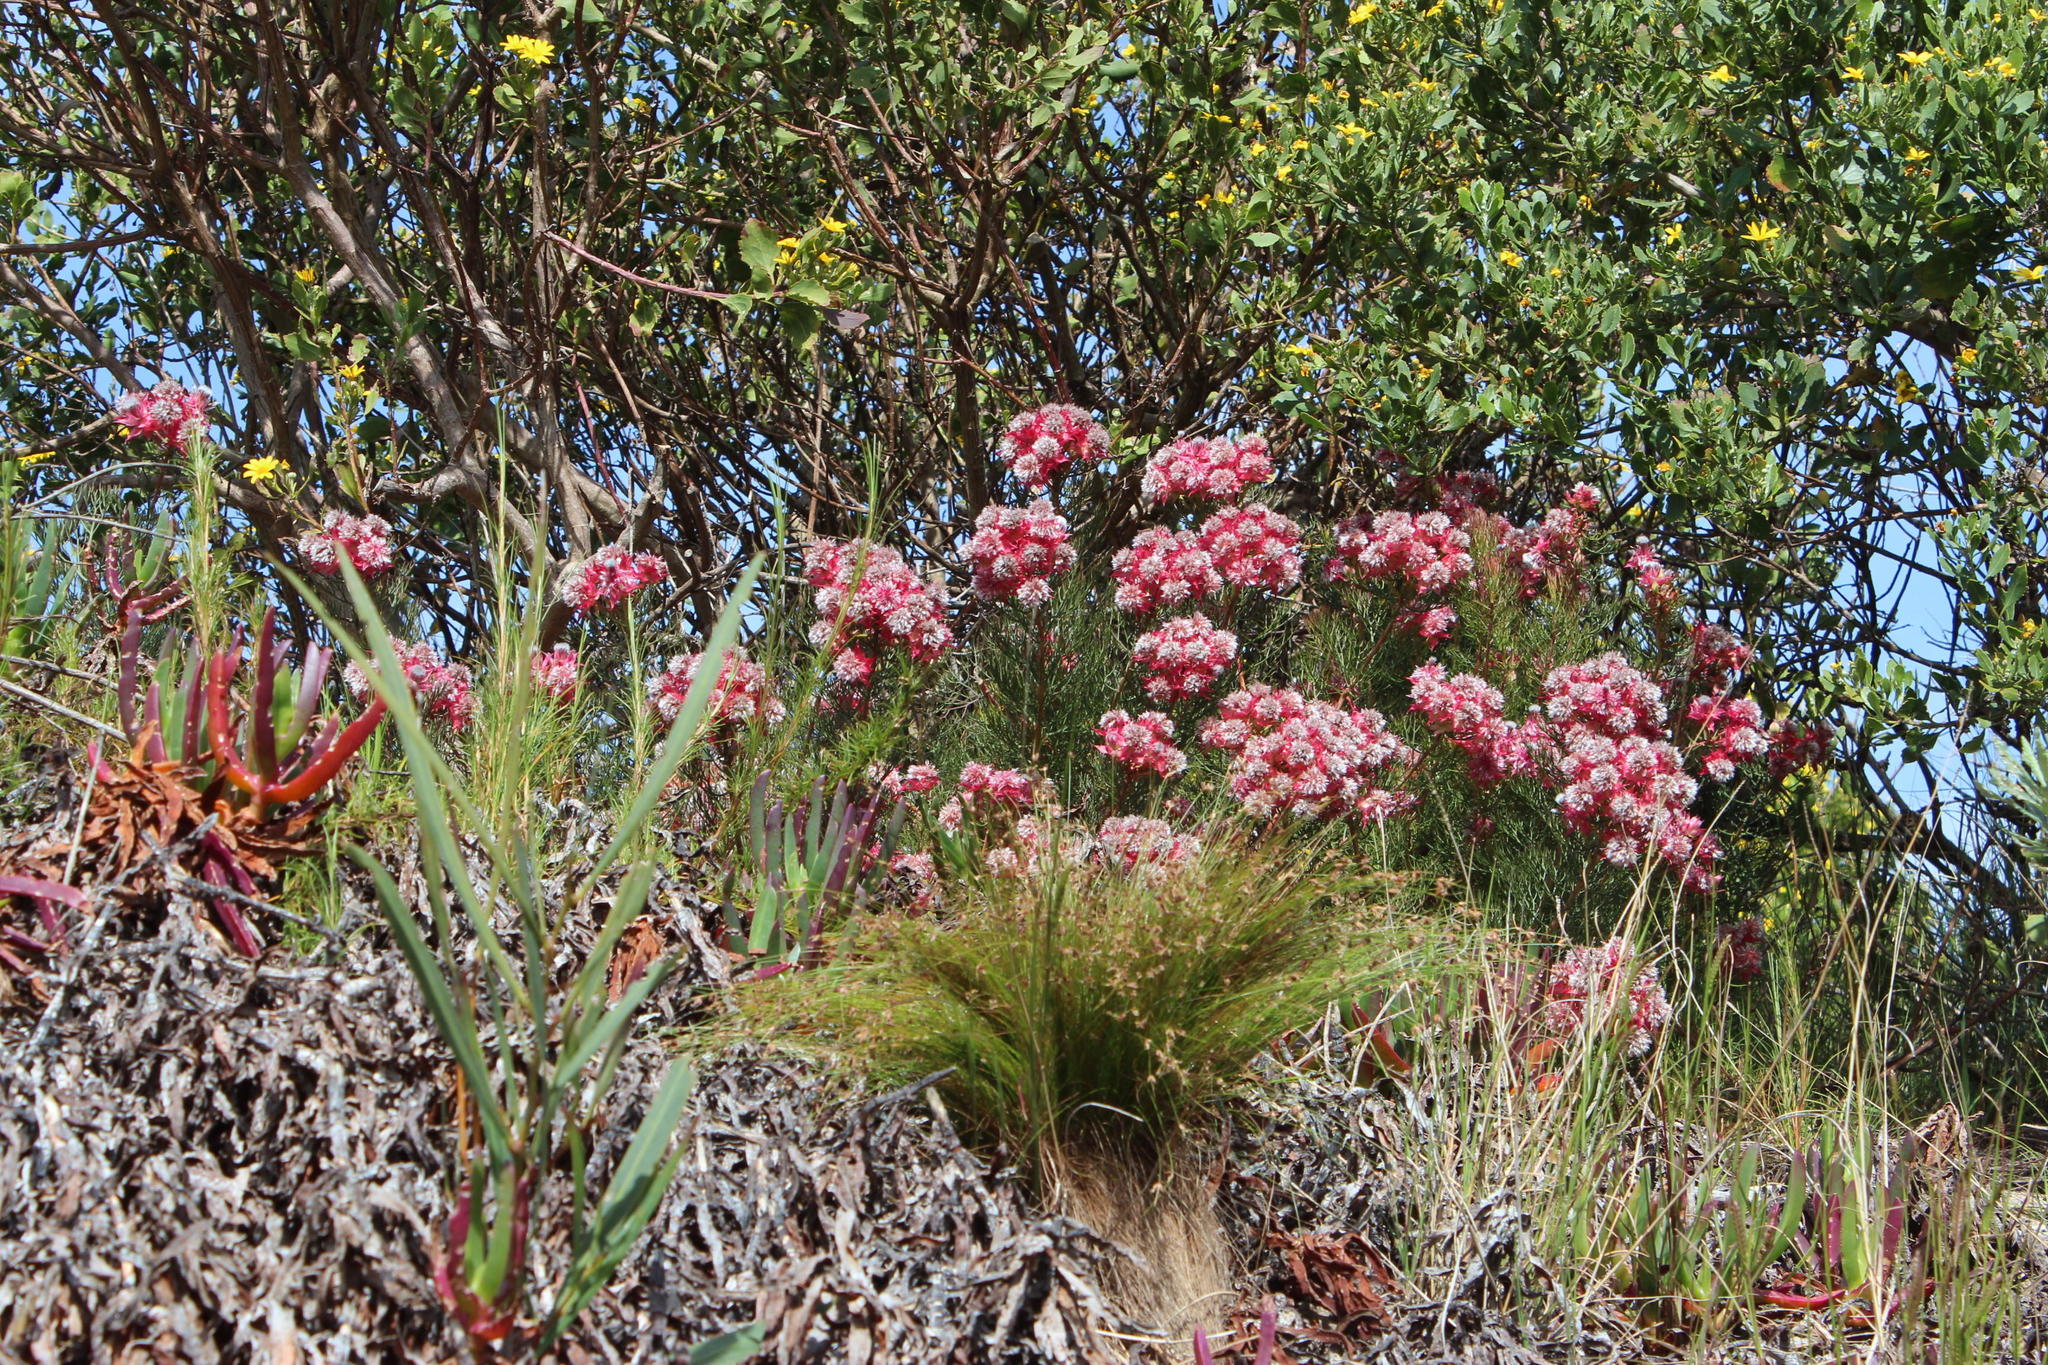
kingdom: Plantae
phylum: Tracheophyta
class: Magnoliopsida
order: Proteales
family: Proteaceae
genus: Serruria
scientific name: Serruria
